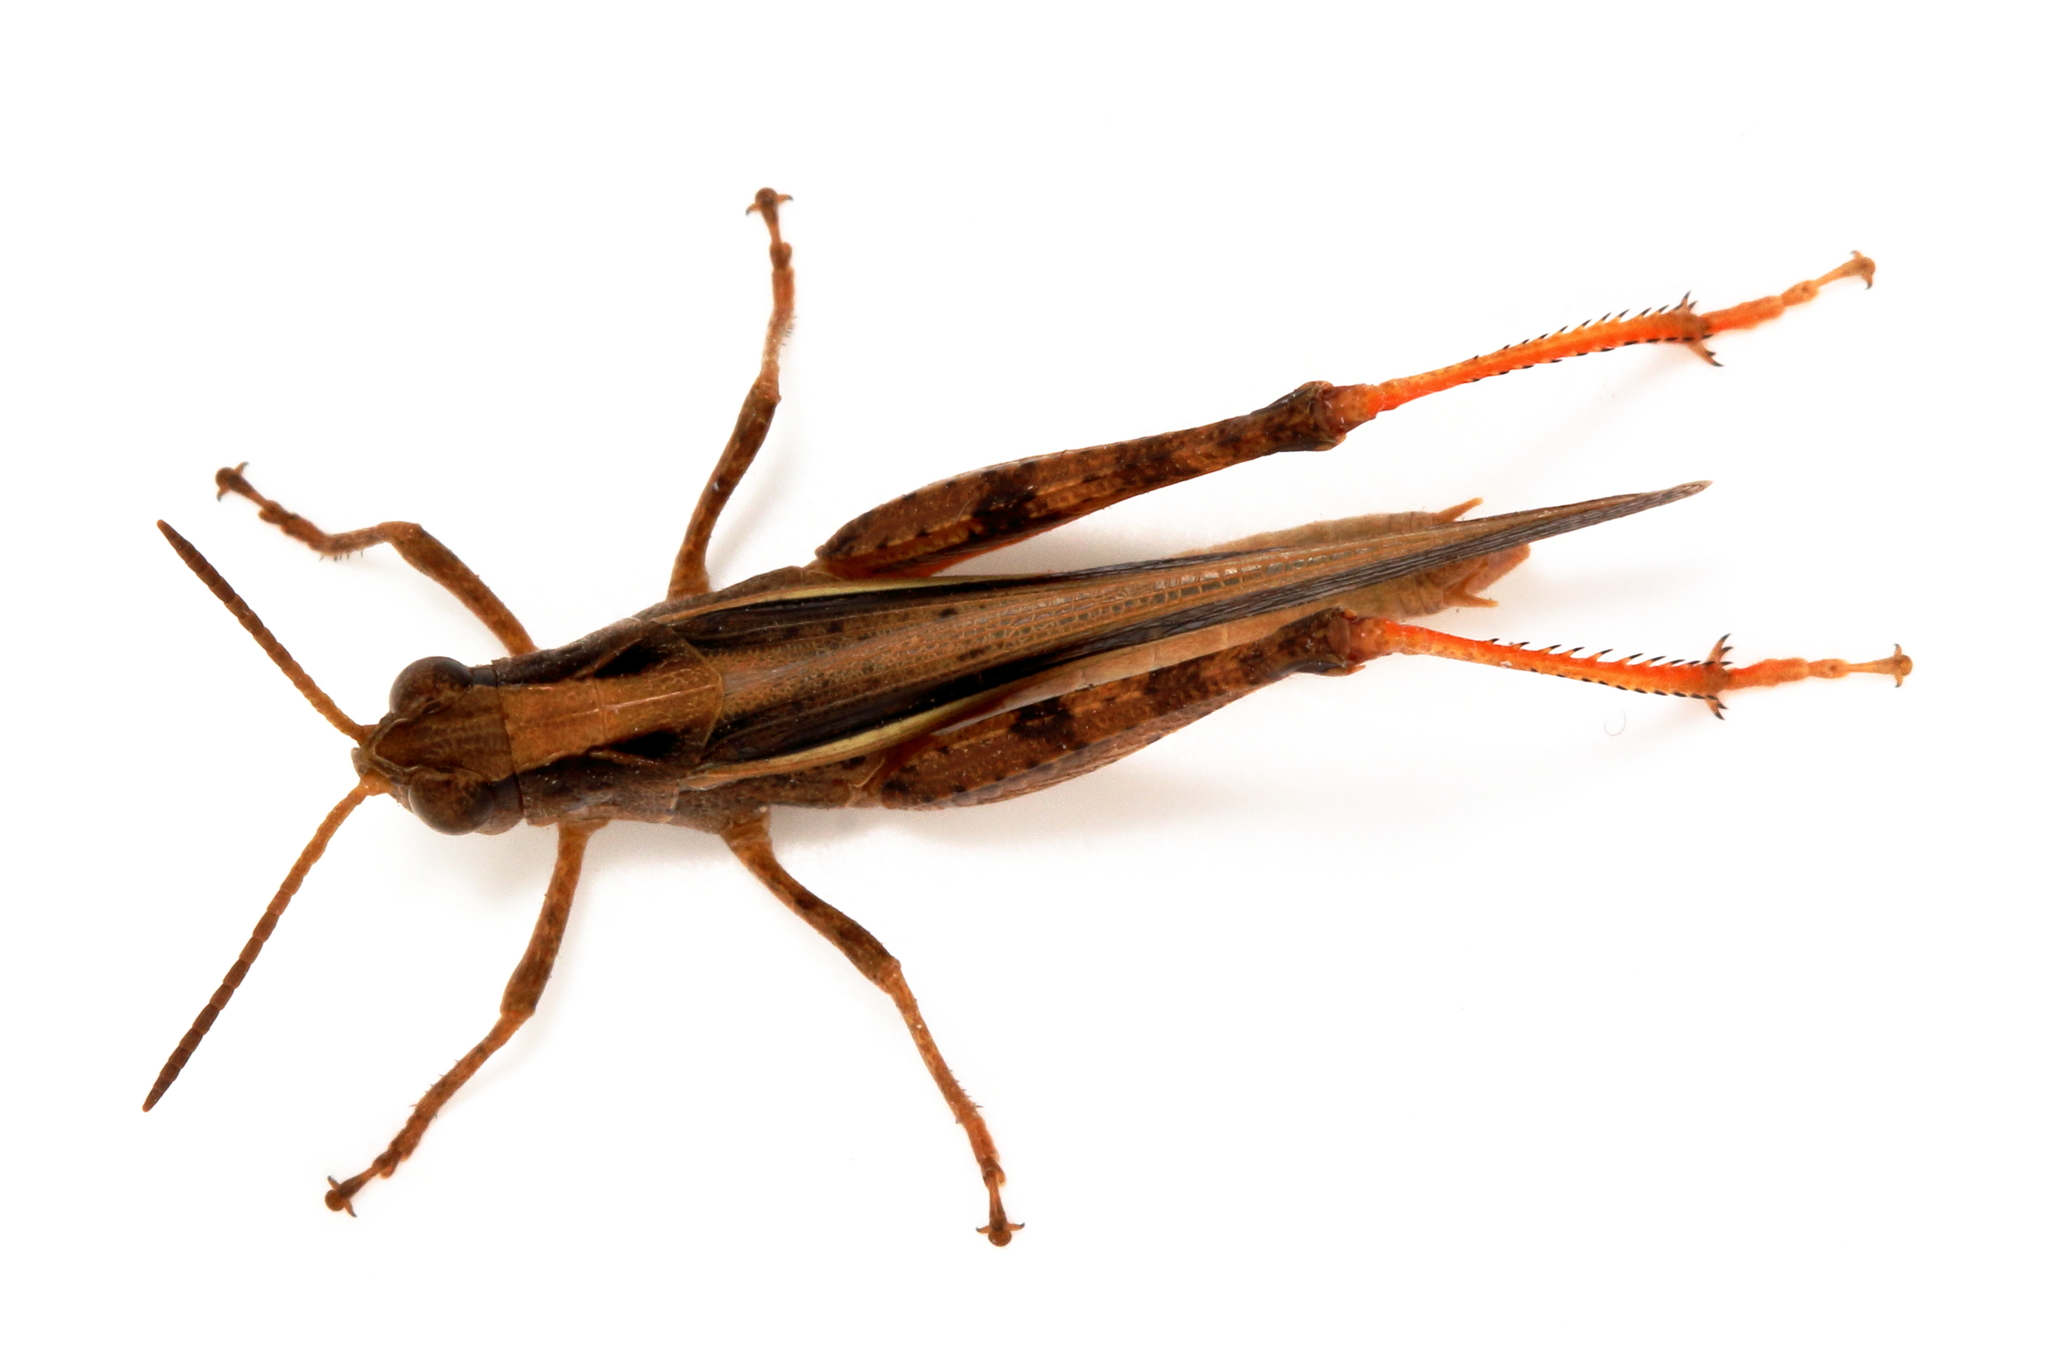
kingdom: Animalia
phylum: Arthropoda
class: Insecta
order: Orthoptera
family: Acrididae
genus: Schizobothrus
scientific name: Schizobothrus flavovittatus
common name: Disappearing grasshopper
